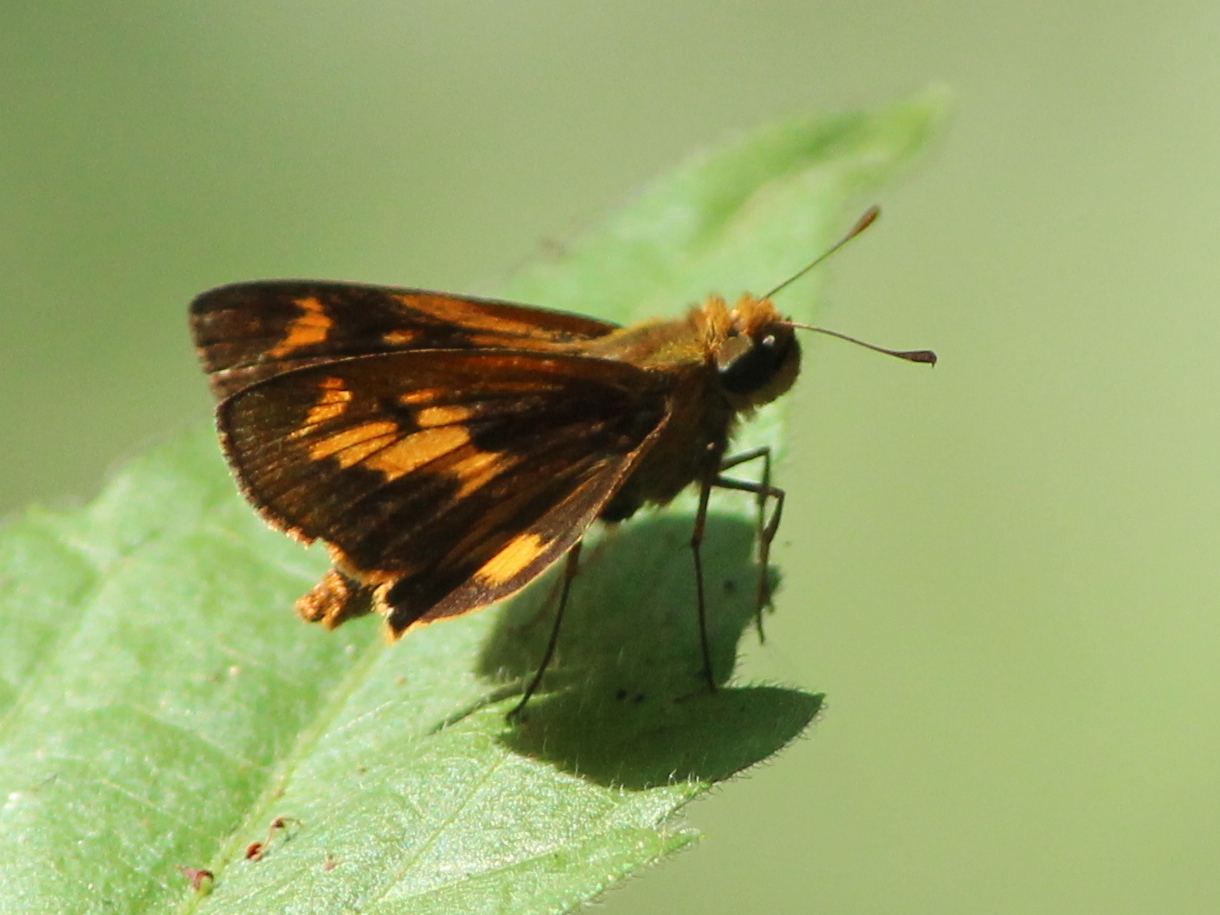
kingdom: Animalia
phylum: Arthropoda
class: Insecta
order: Lepidoptera
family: Hesperiidae
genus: Oriens
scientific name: Oriens goloides
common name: Smaller dartlet
